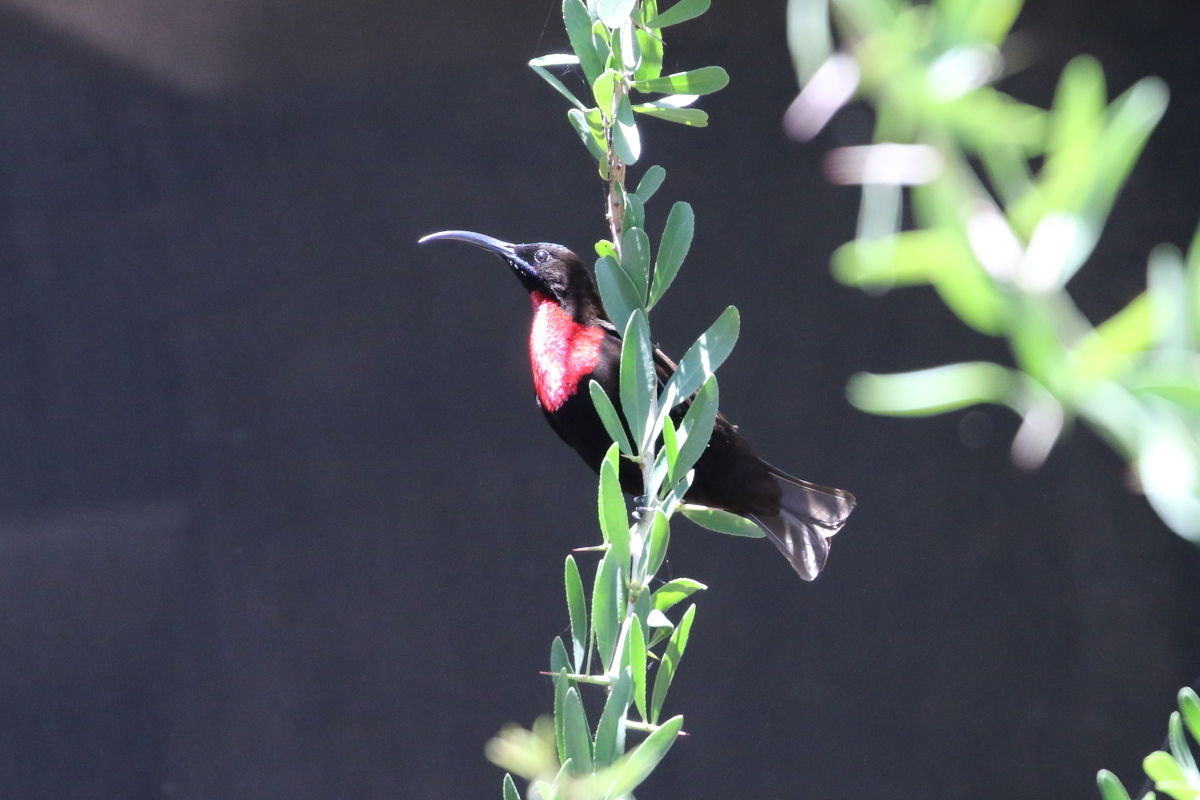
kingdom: Animalia
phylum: Chordata
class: Aves
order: Passeriformes
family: Nectariniidae
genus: Chalcomitra
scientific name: Chalcomitra senegalensis
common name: Scarlet-chested sunbird
